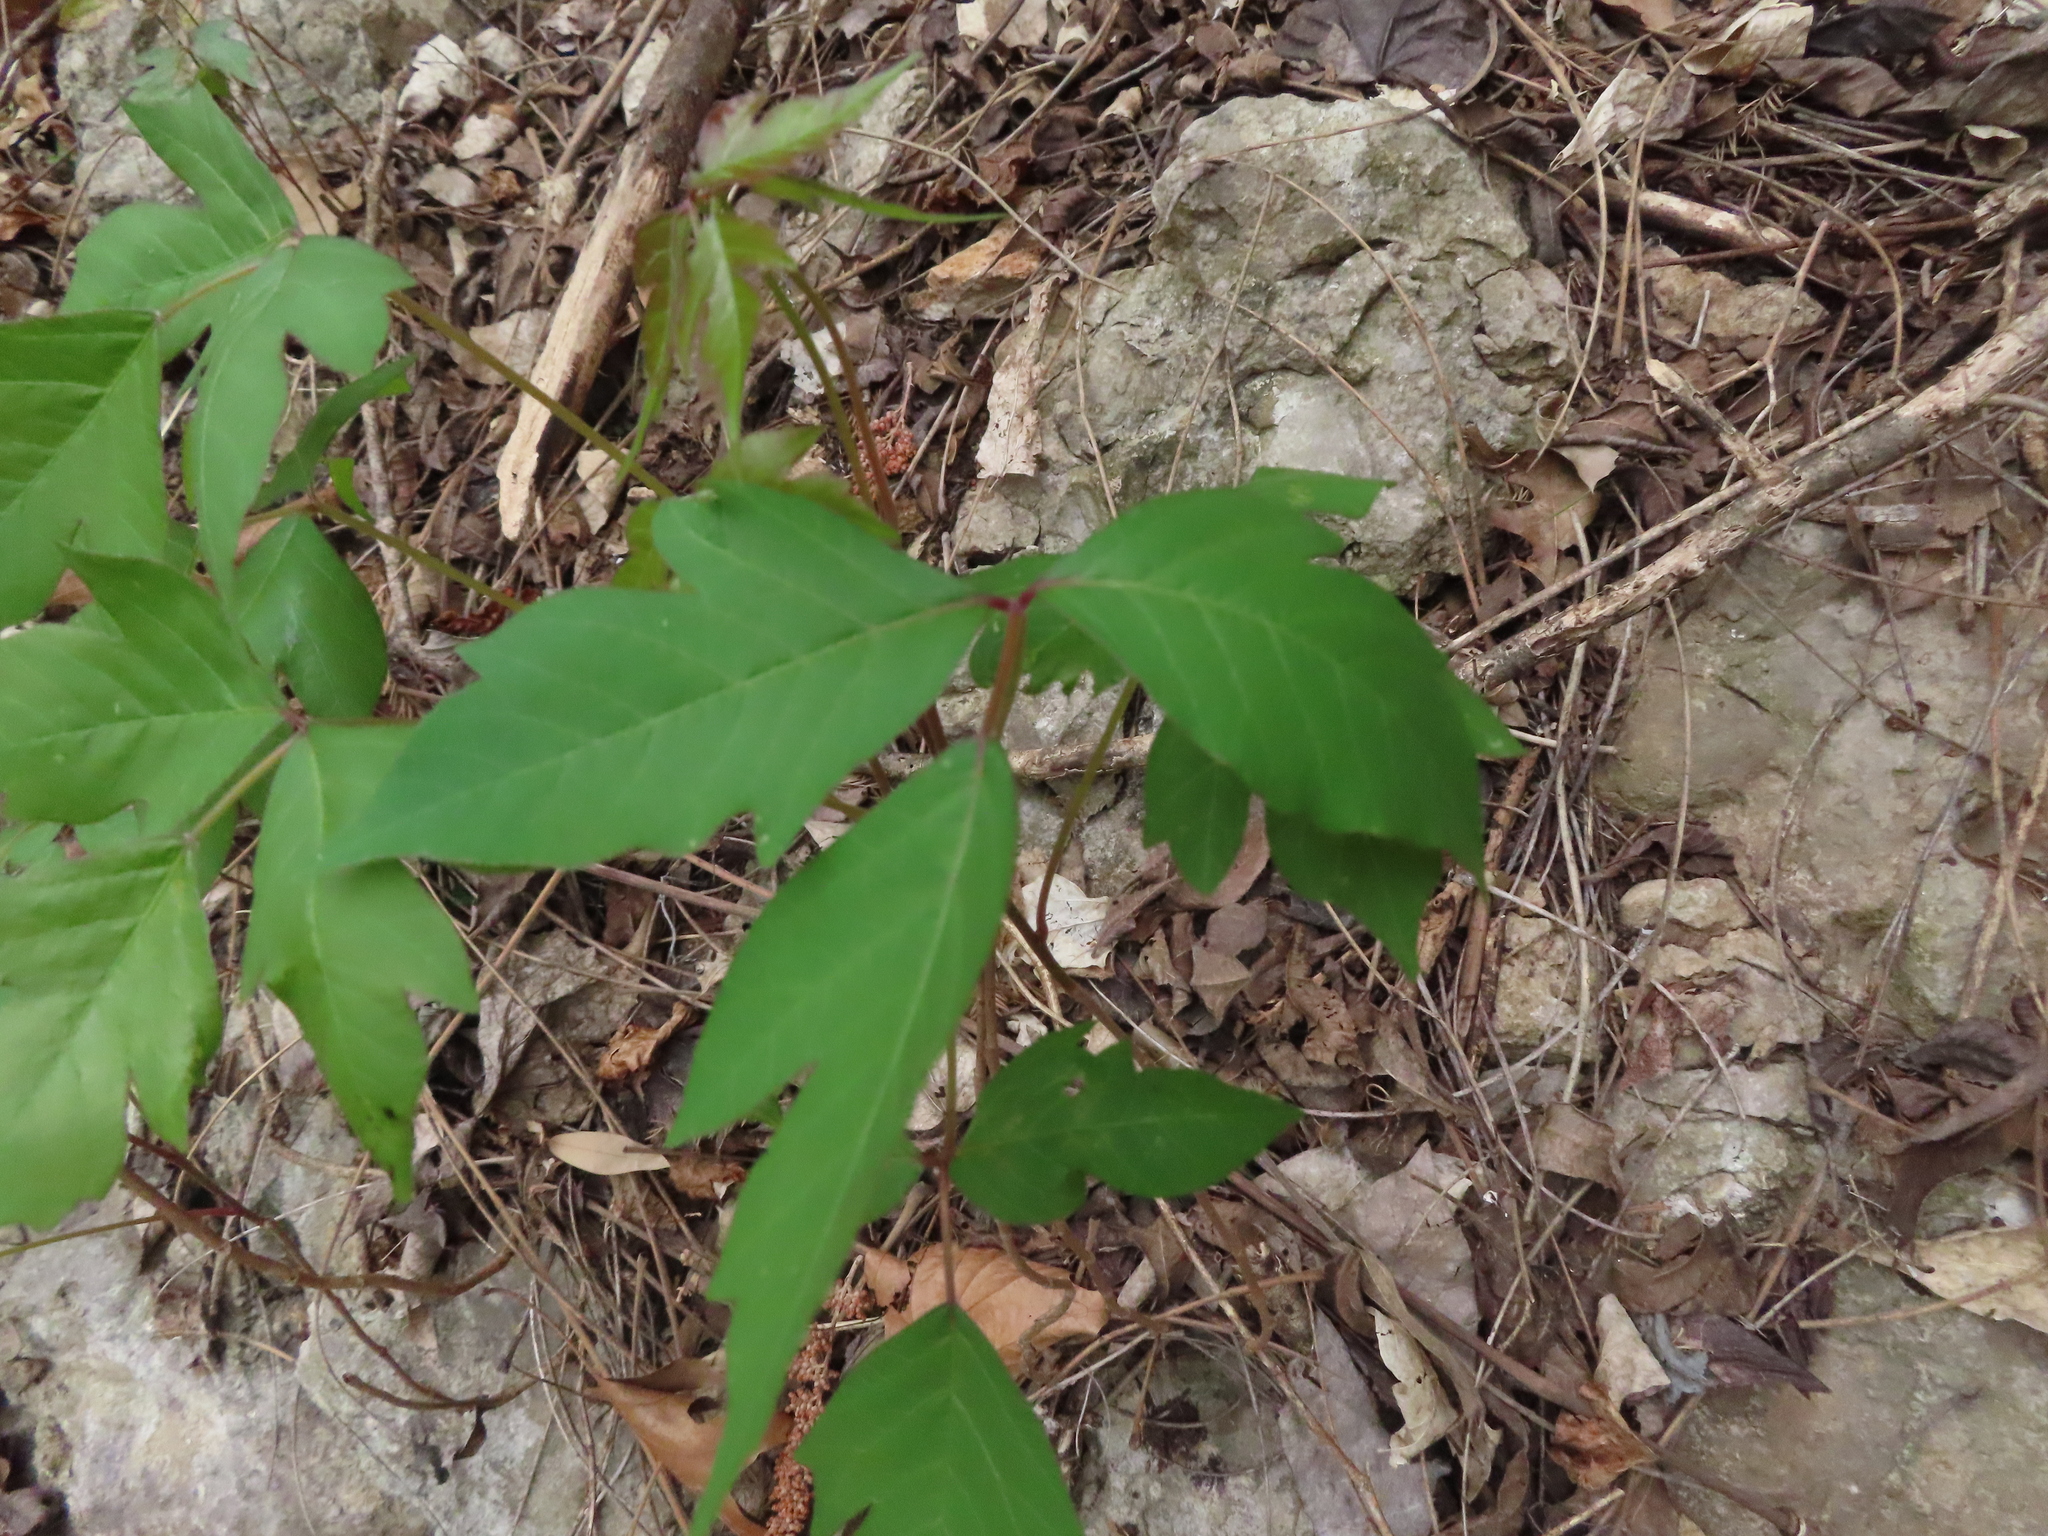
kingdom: Plantae
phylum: Tracheophyta
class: Magnoliopsida
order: Sapindales
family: Anacardiaceae
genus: Toxicodendron
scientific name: Toxicodendron radicans
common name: Poison ivy
